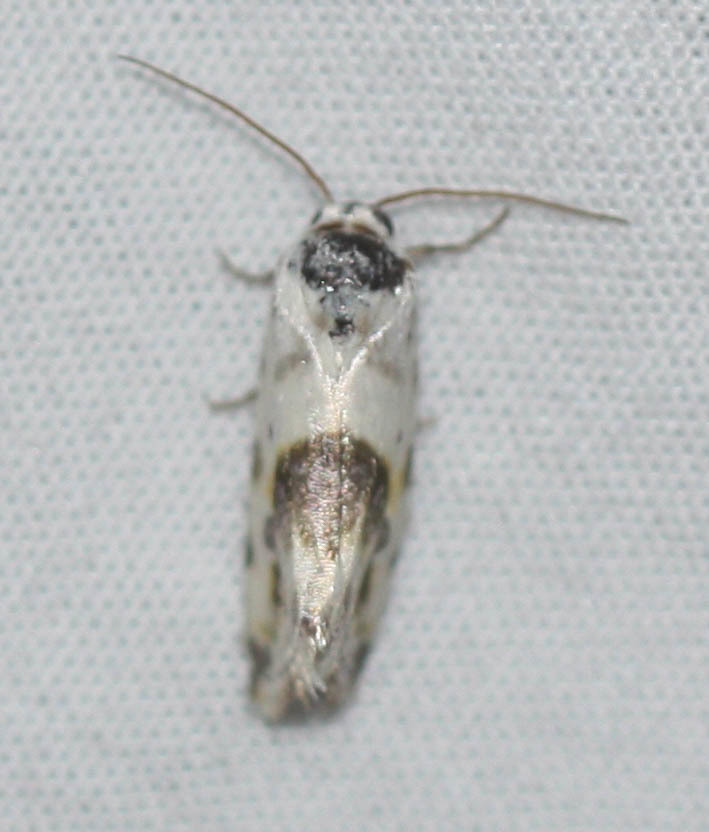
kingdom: Animalia
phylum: Arthropoda
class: Insecta
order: Lepidoptera
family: Noctuidae
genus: Acontia
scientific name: Acontia candefacta
